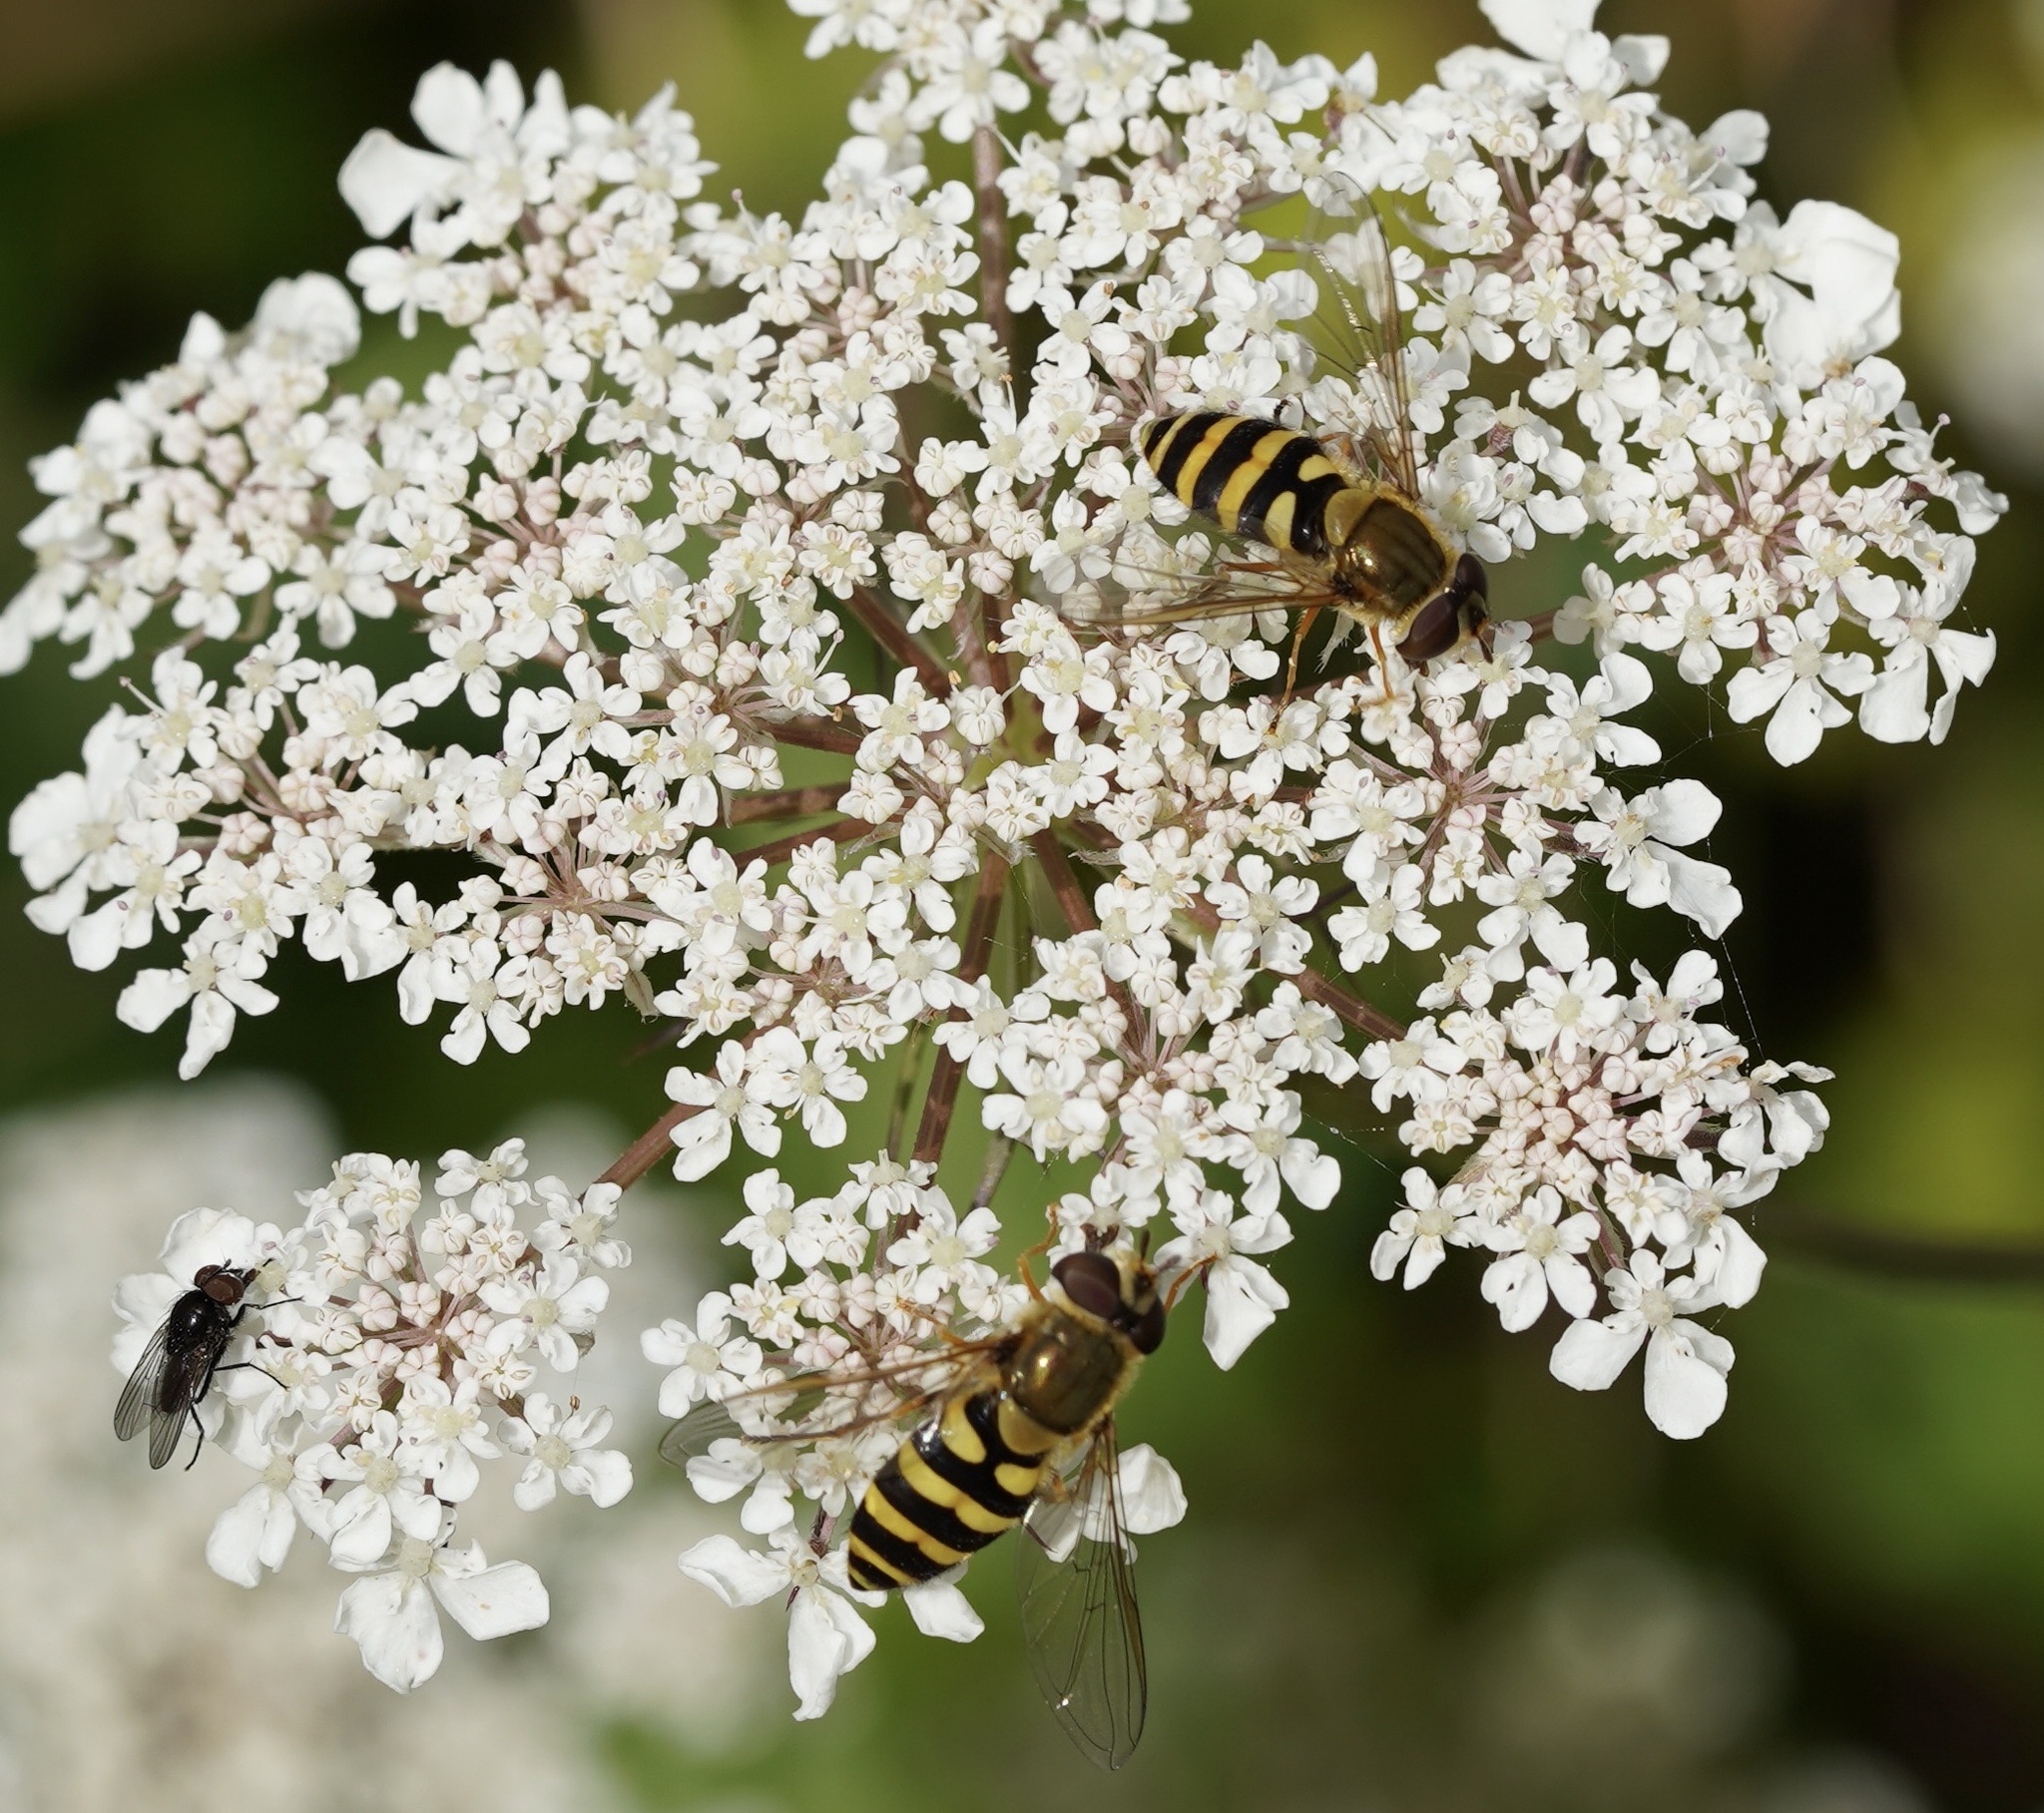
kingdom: Animalia
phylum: Arthropoda
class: Insecta
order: Diptera
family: Syrphidae
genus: Syrphus
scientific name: Syrphus ribesii
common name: Common flower fly
